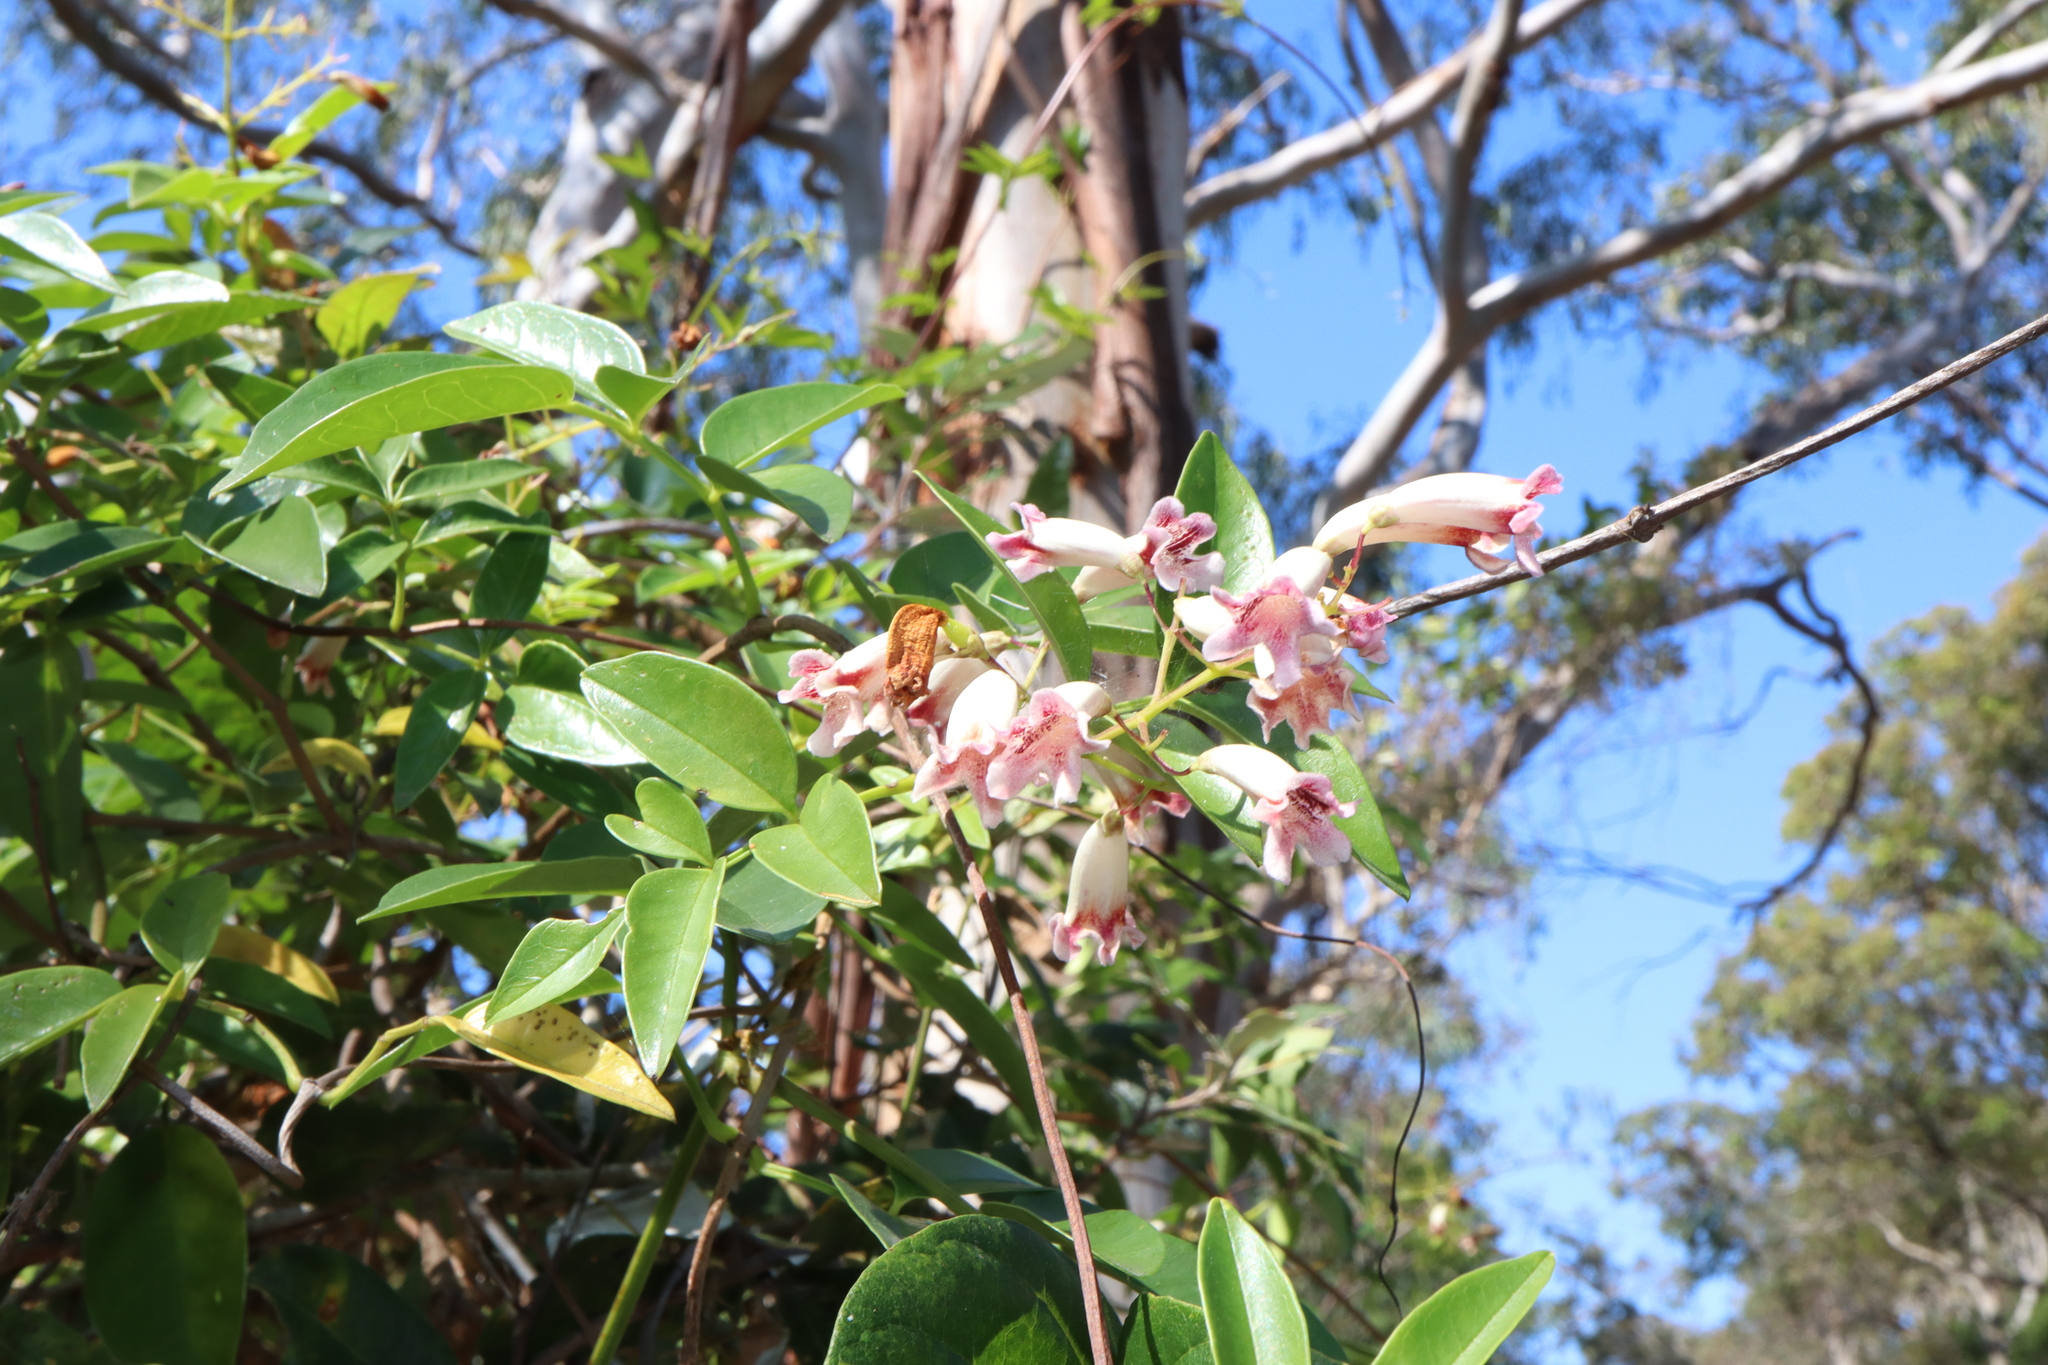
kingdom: Plantae
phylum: Tracheophyta
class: Magnoliopsida
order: Lamiales
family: Bignoniaceae
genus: Pandorea
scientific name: Pandorea pandorana
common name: Wonga-wonga-vine
